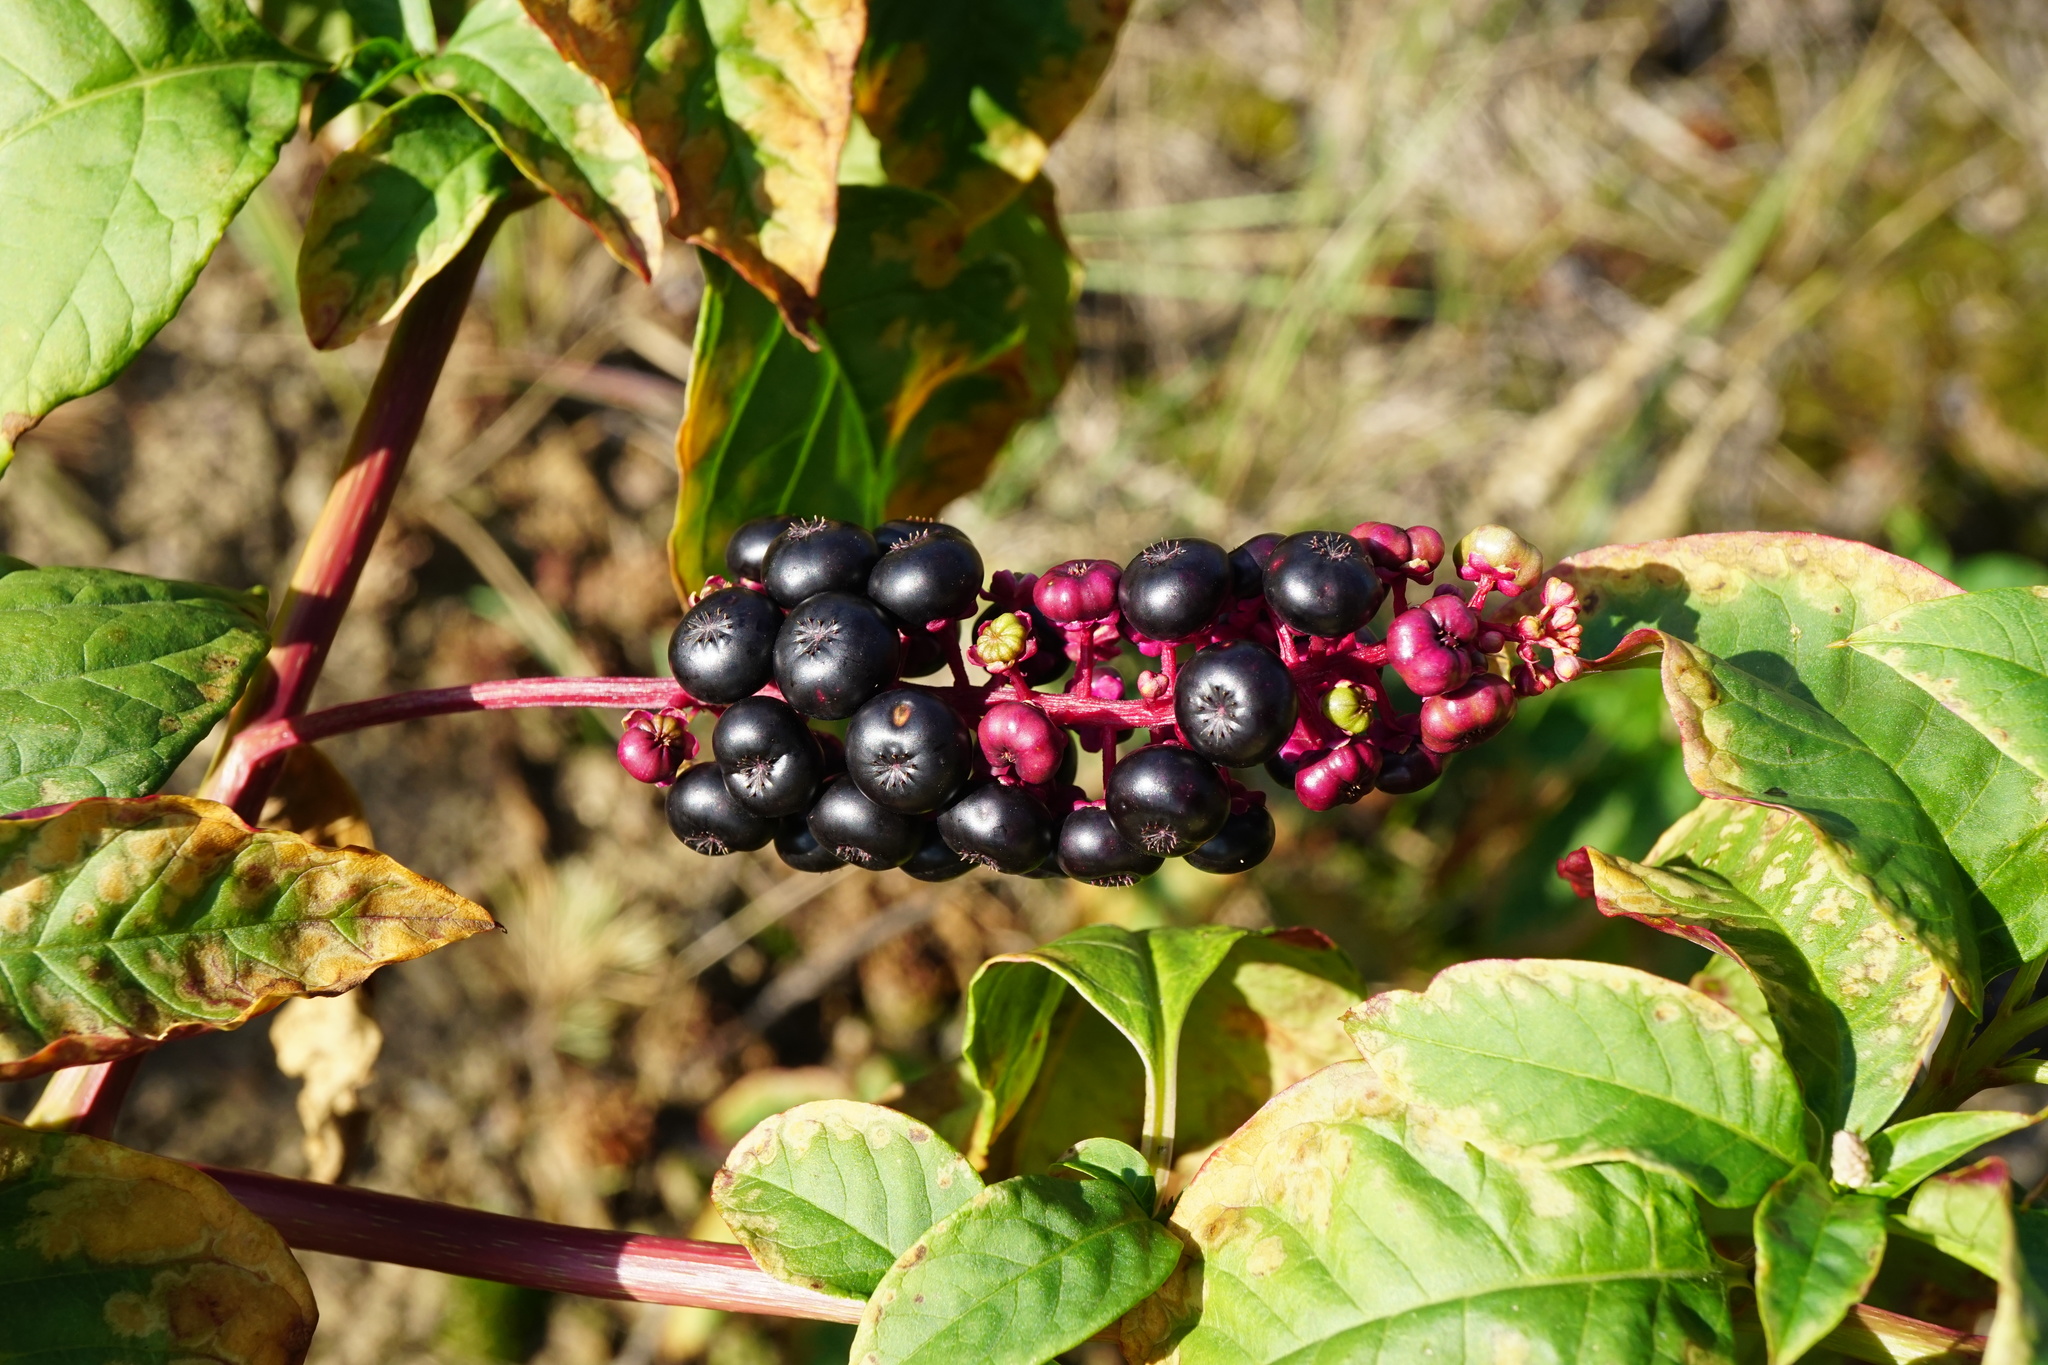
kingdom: Plantae
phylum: Tracheophyta
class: Magnoliopsida
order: Caryophyllales
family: Phytolaccaceae
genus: Phytolacca
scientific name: Phytolacca americana
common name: American pokeweed
